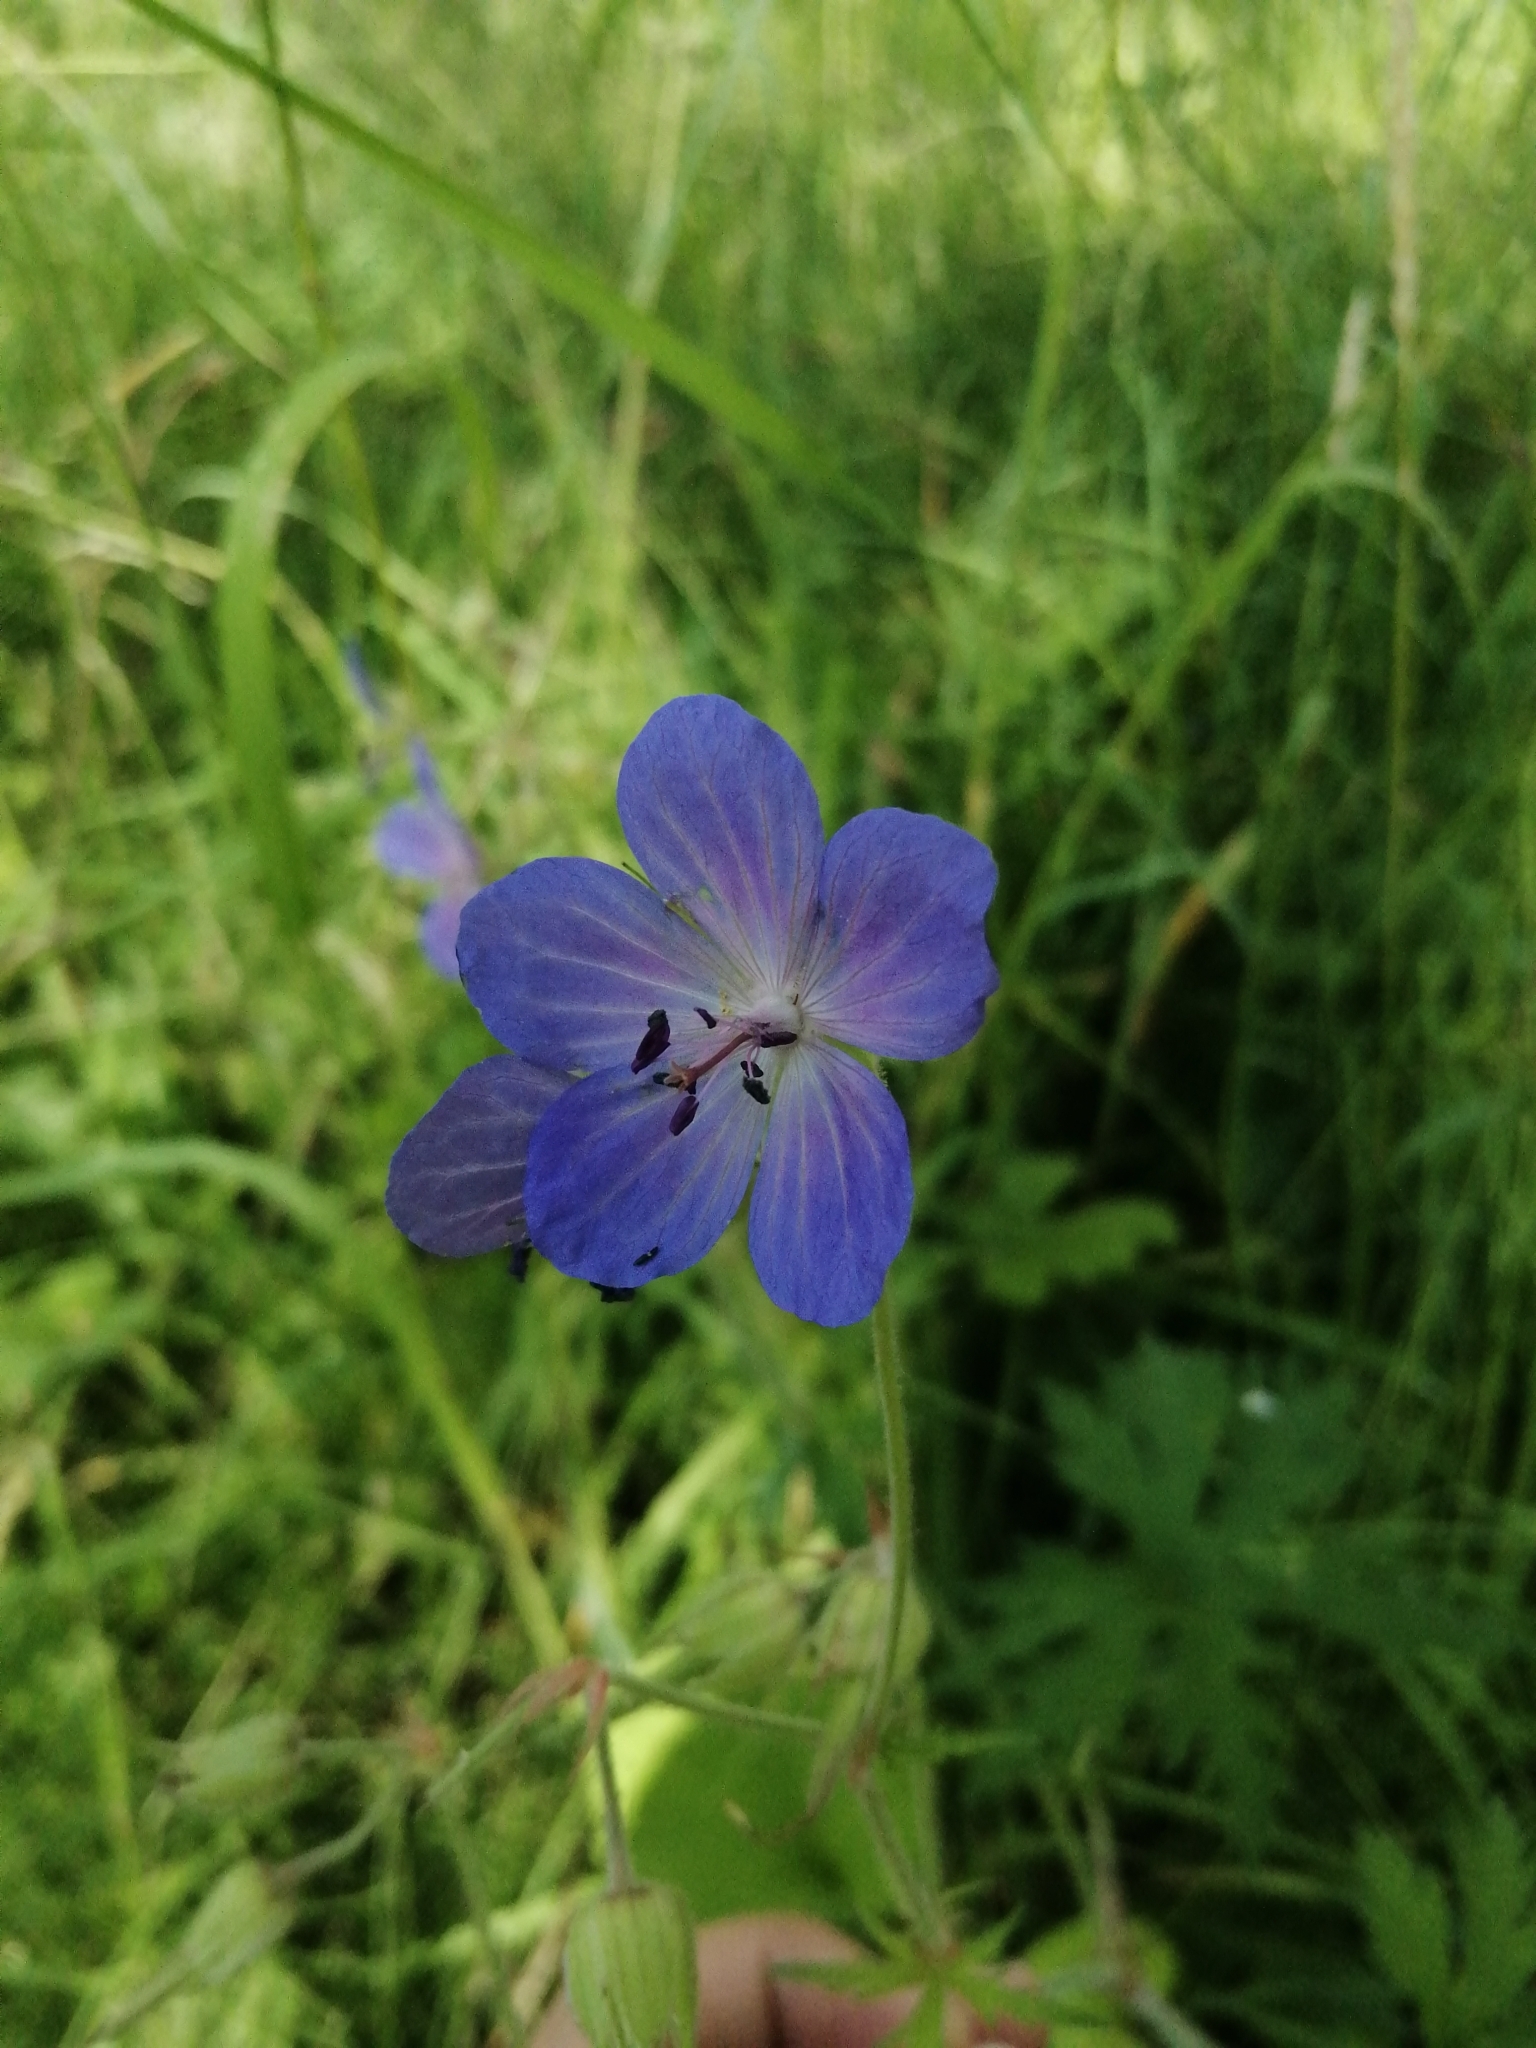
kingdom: Plantae
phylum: Tracheophyta
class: Magnoliopsida
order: Geraniales
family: Geraniaceae
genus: Geranium
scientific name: Geranium pratense
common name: Meadow crane's-bill
